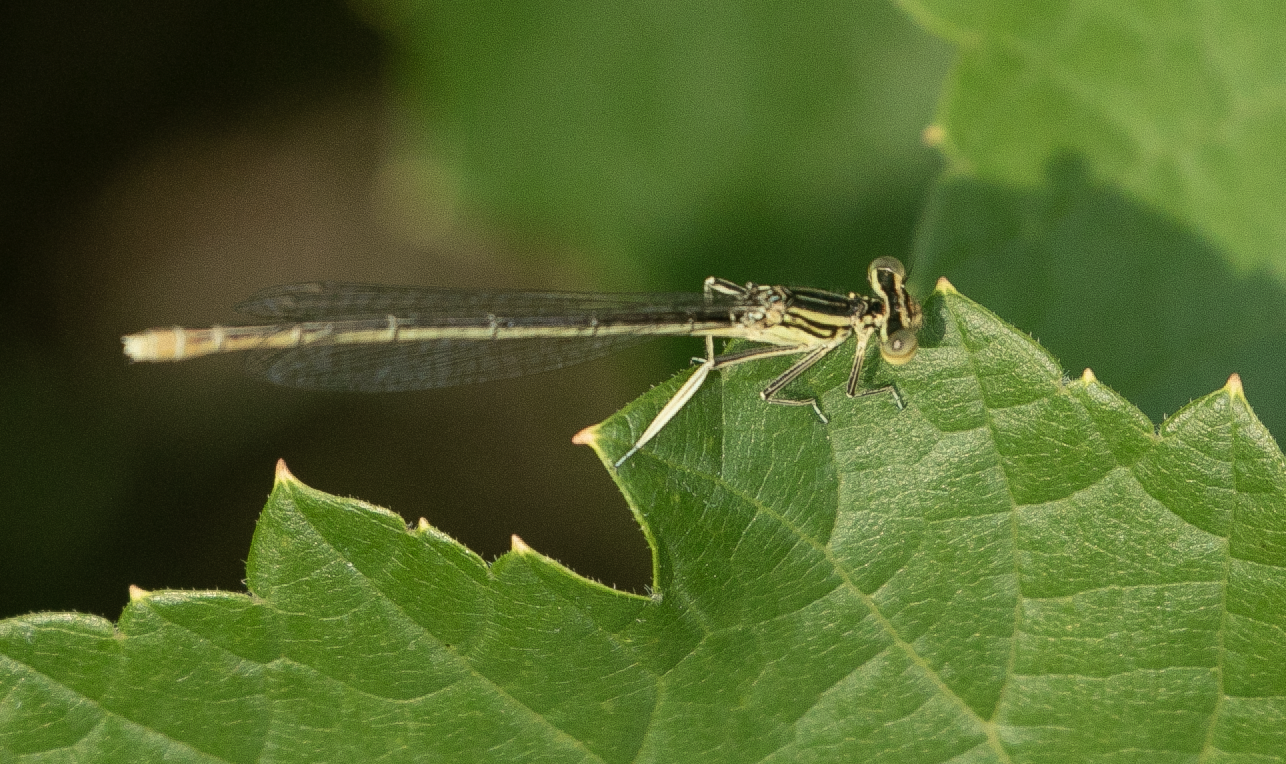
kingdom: Animalia
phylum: Arthropoda
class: Insecta
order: Odonata
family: Platycnemididae
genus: Platycnemis
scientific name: Platycnemis pennipes
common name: White-legged damselfly
